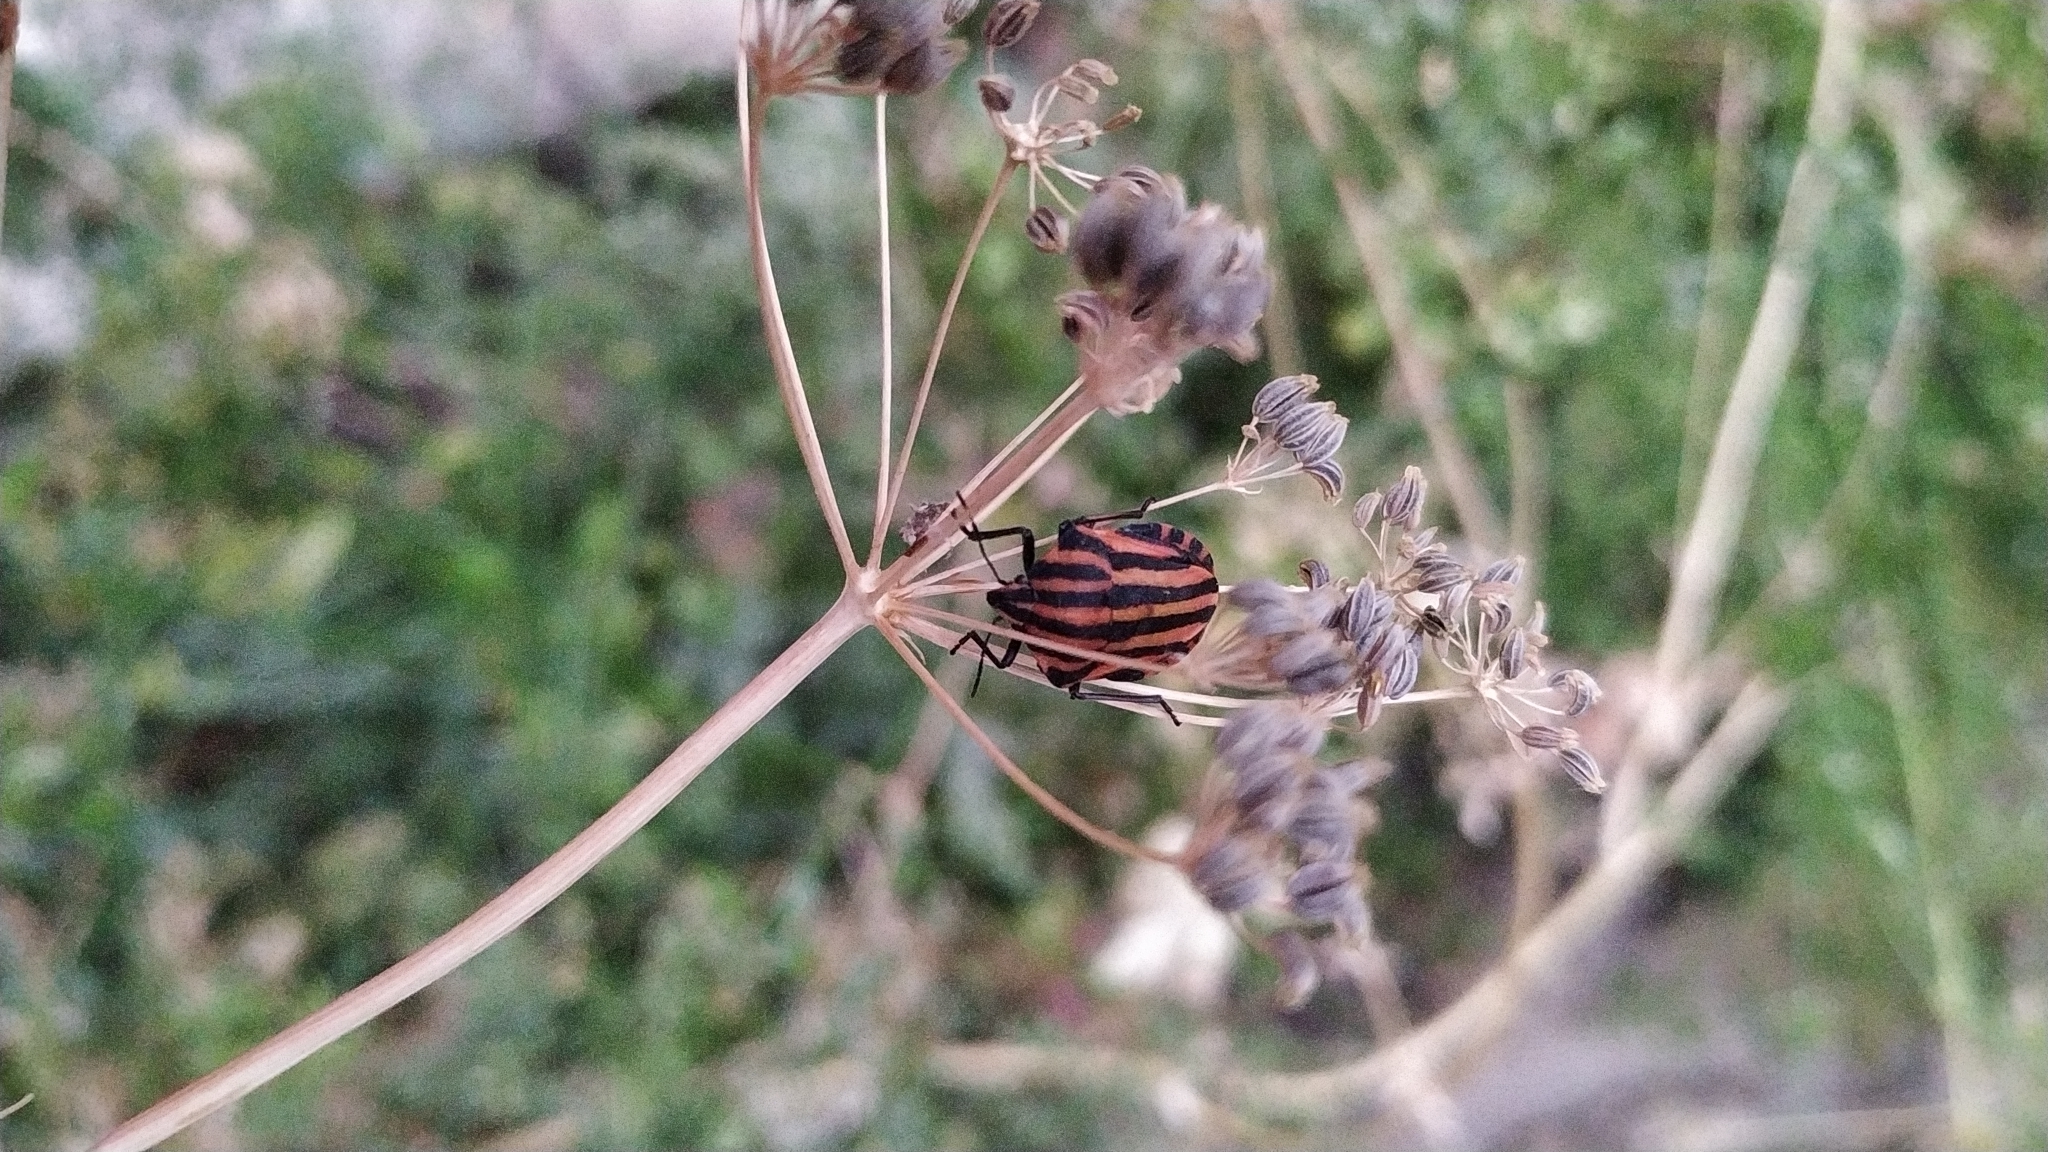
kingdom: Animalia
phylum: Arthropoda
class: Insecta
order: Hemiptera
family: Pentatomidae
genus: Graphosoma
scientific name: Graphosoma italicum
